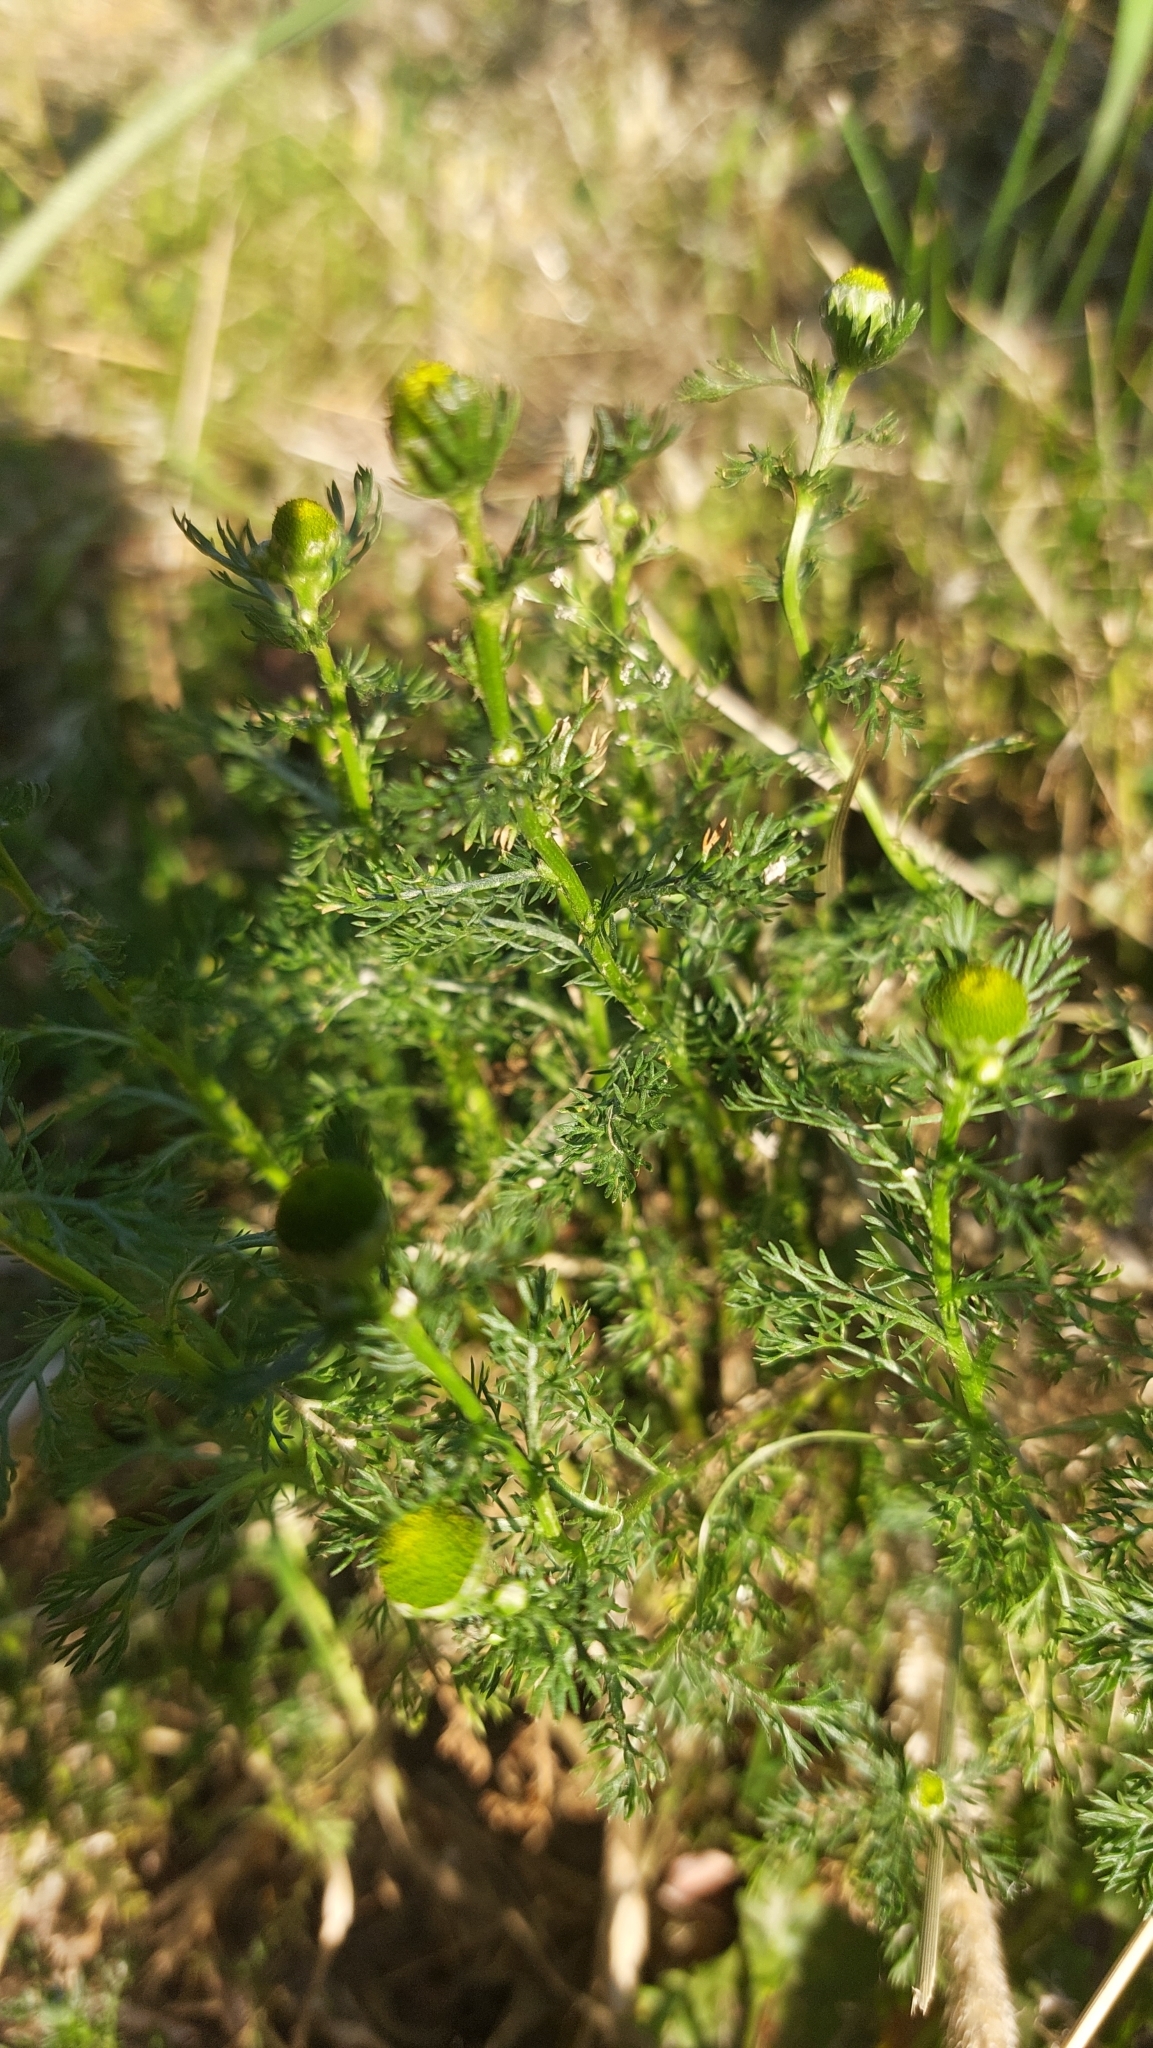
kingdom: Plantae
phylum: Tracheophyta
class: Magnoliopsida
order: Asterales
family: Asteraceae
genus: Matricaria
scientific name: Matricaria discoidea
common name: Disc mayweed
